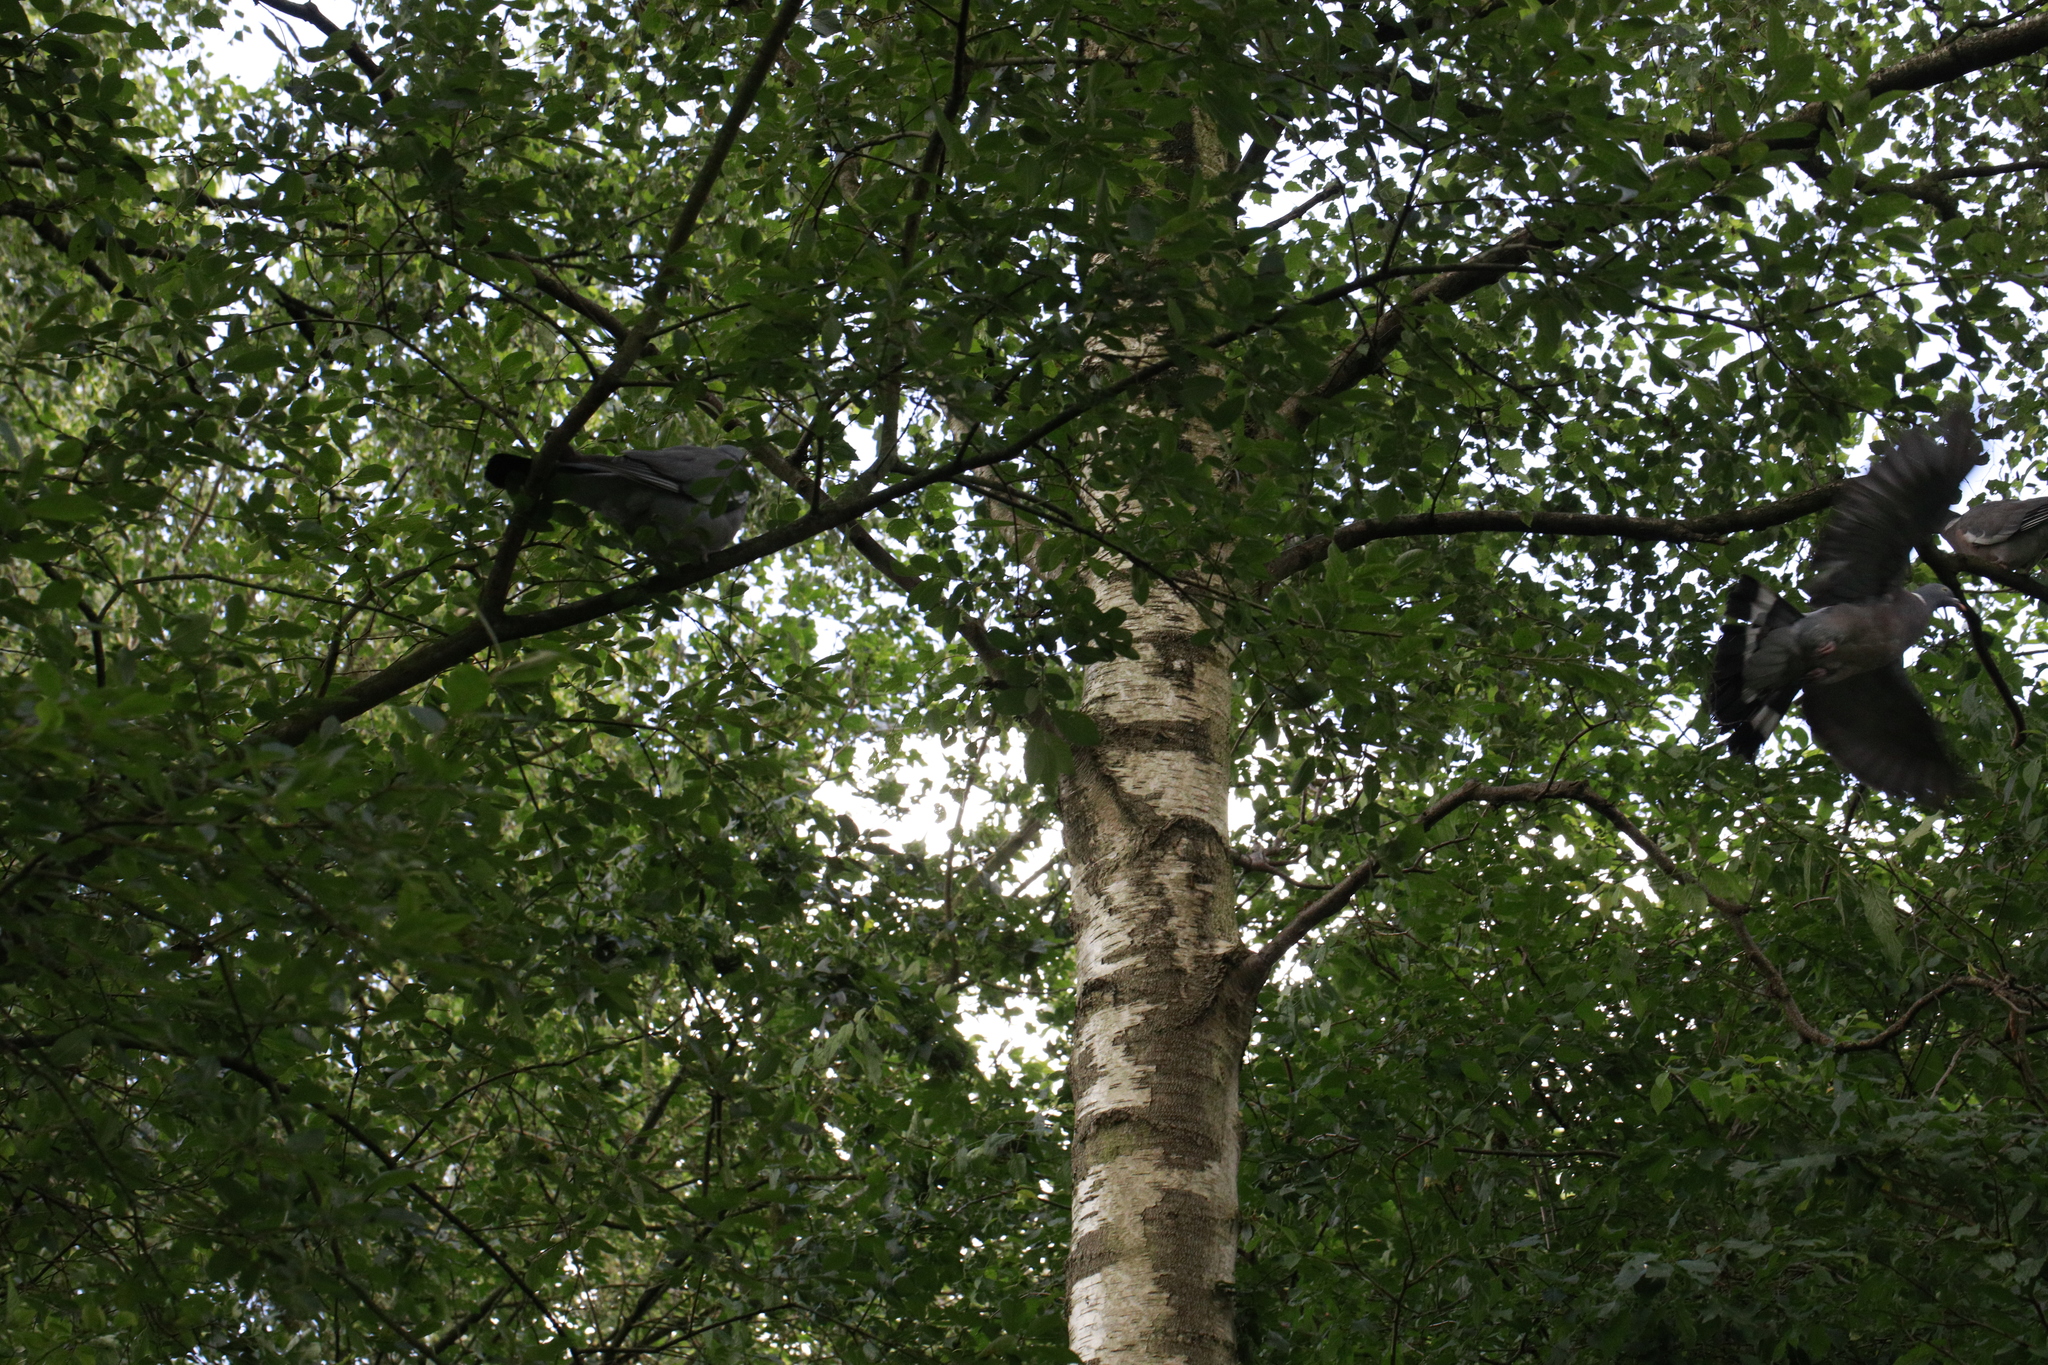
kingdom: Animalia
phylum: Chordata
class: Aves
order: Columbiformes
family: Columbidae
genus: Columba
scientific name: Columba palumbus
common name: Common wood pigeon
